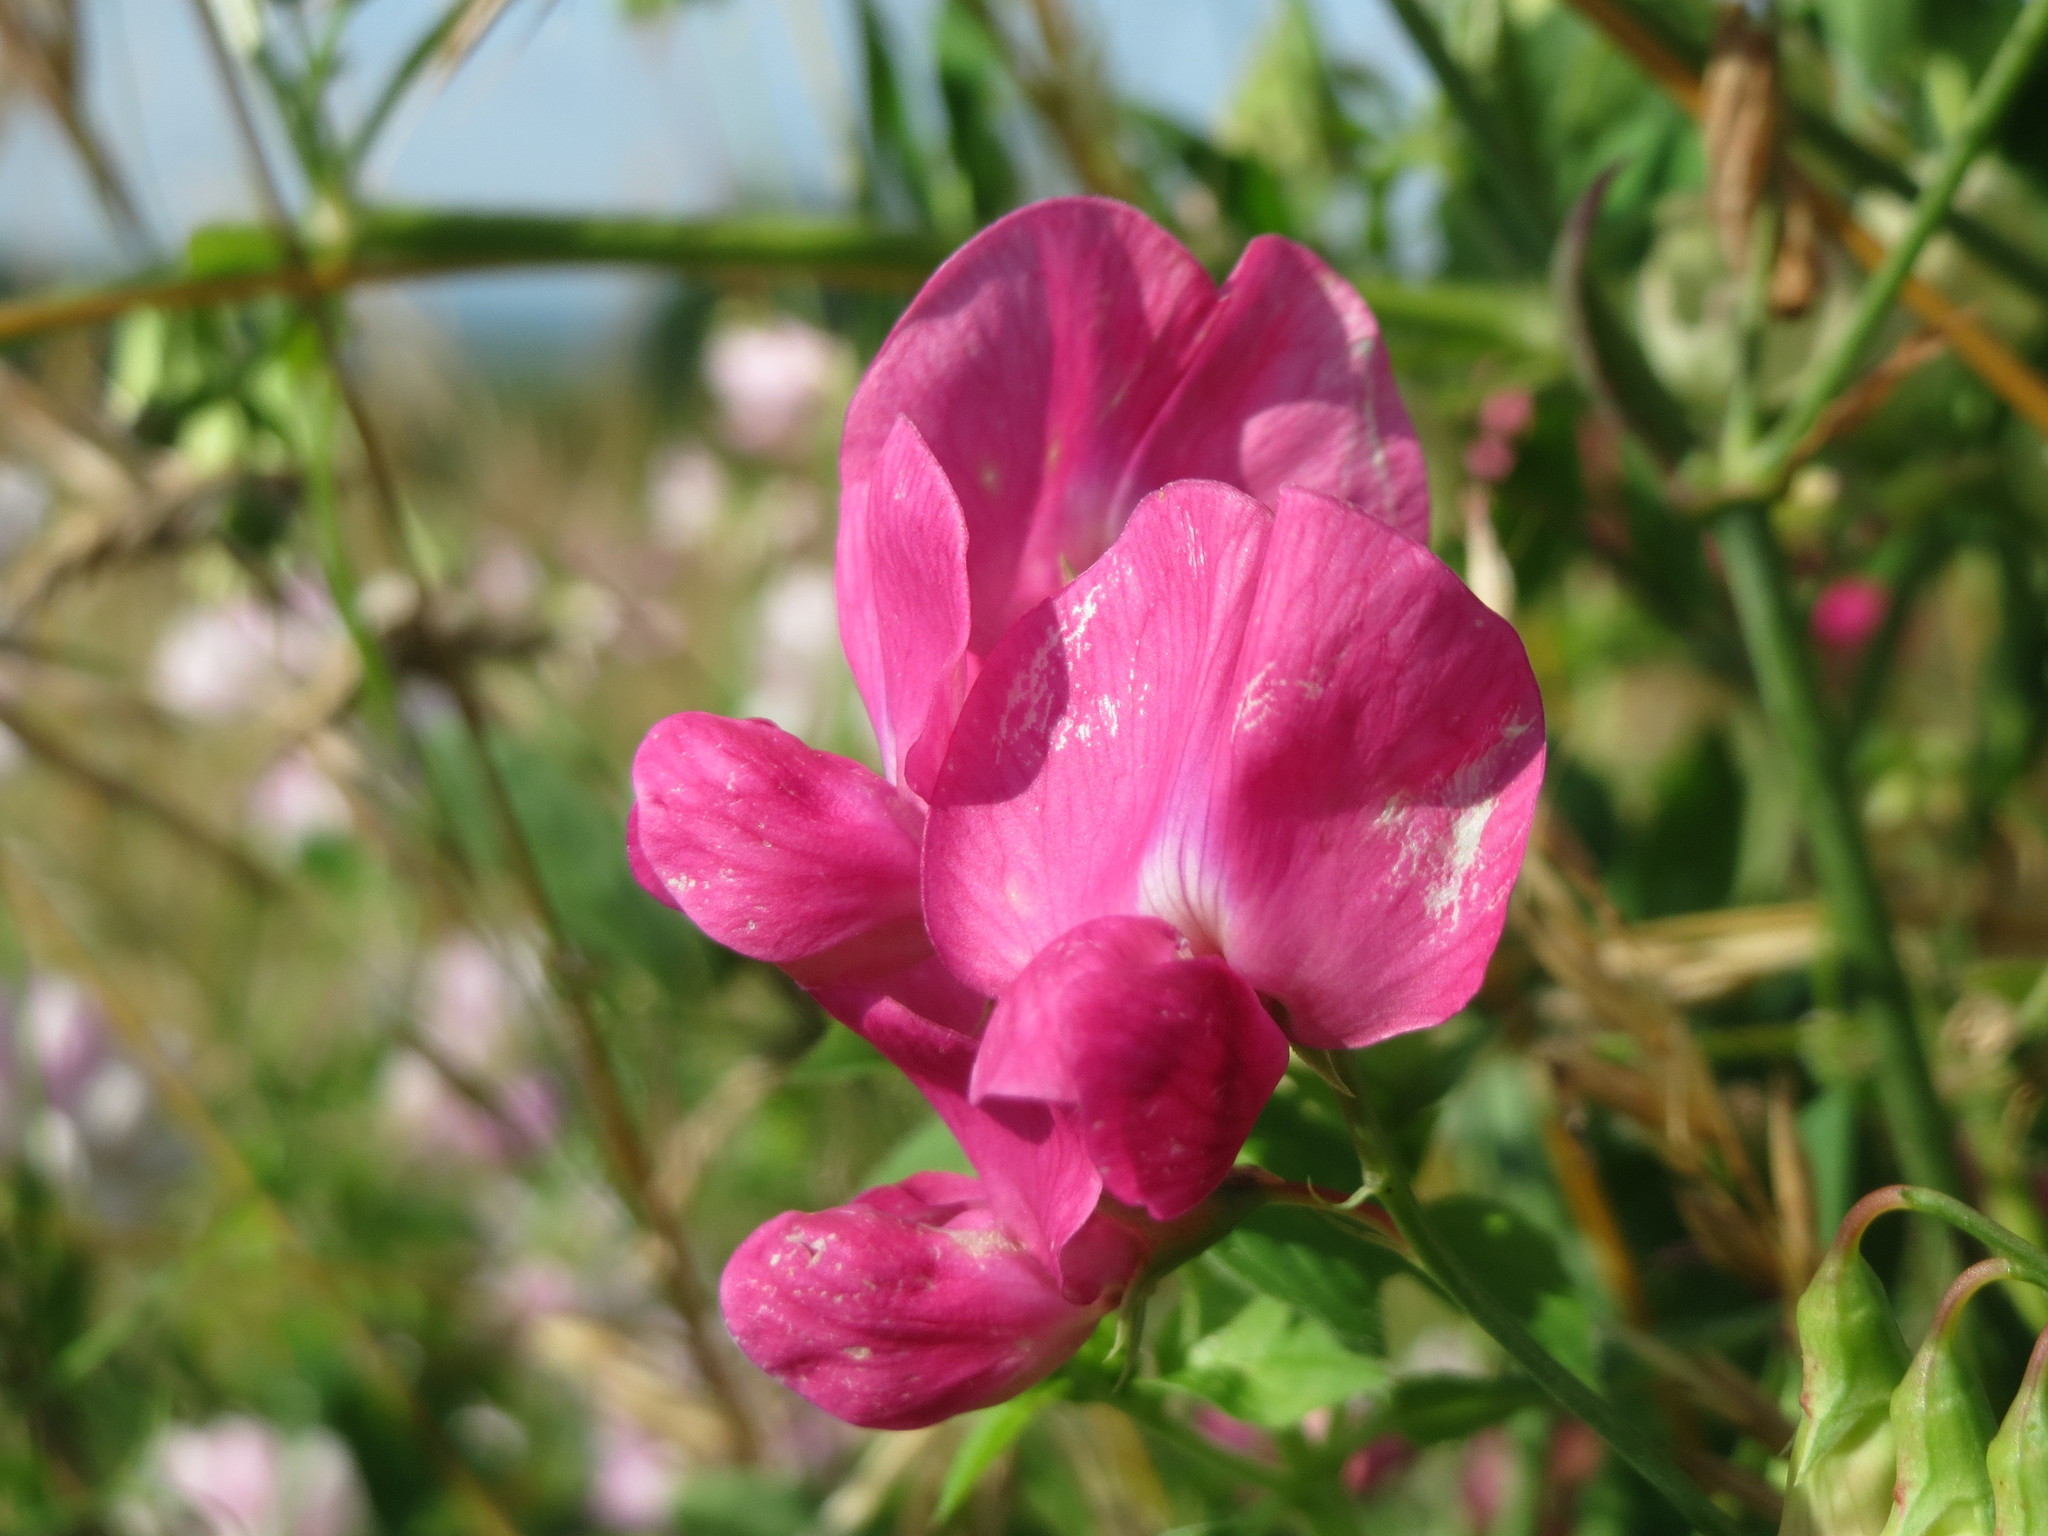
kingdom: Plantae
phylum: Tracheophyta
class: Magnoliopsida
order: Fabales
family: Fabaceae
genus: Lathyrus
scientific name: Lathyrus tuberosus
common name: Tuberous pea
